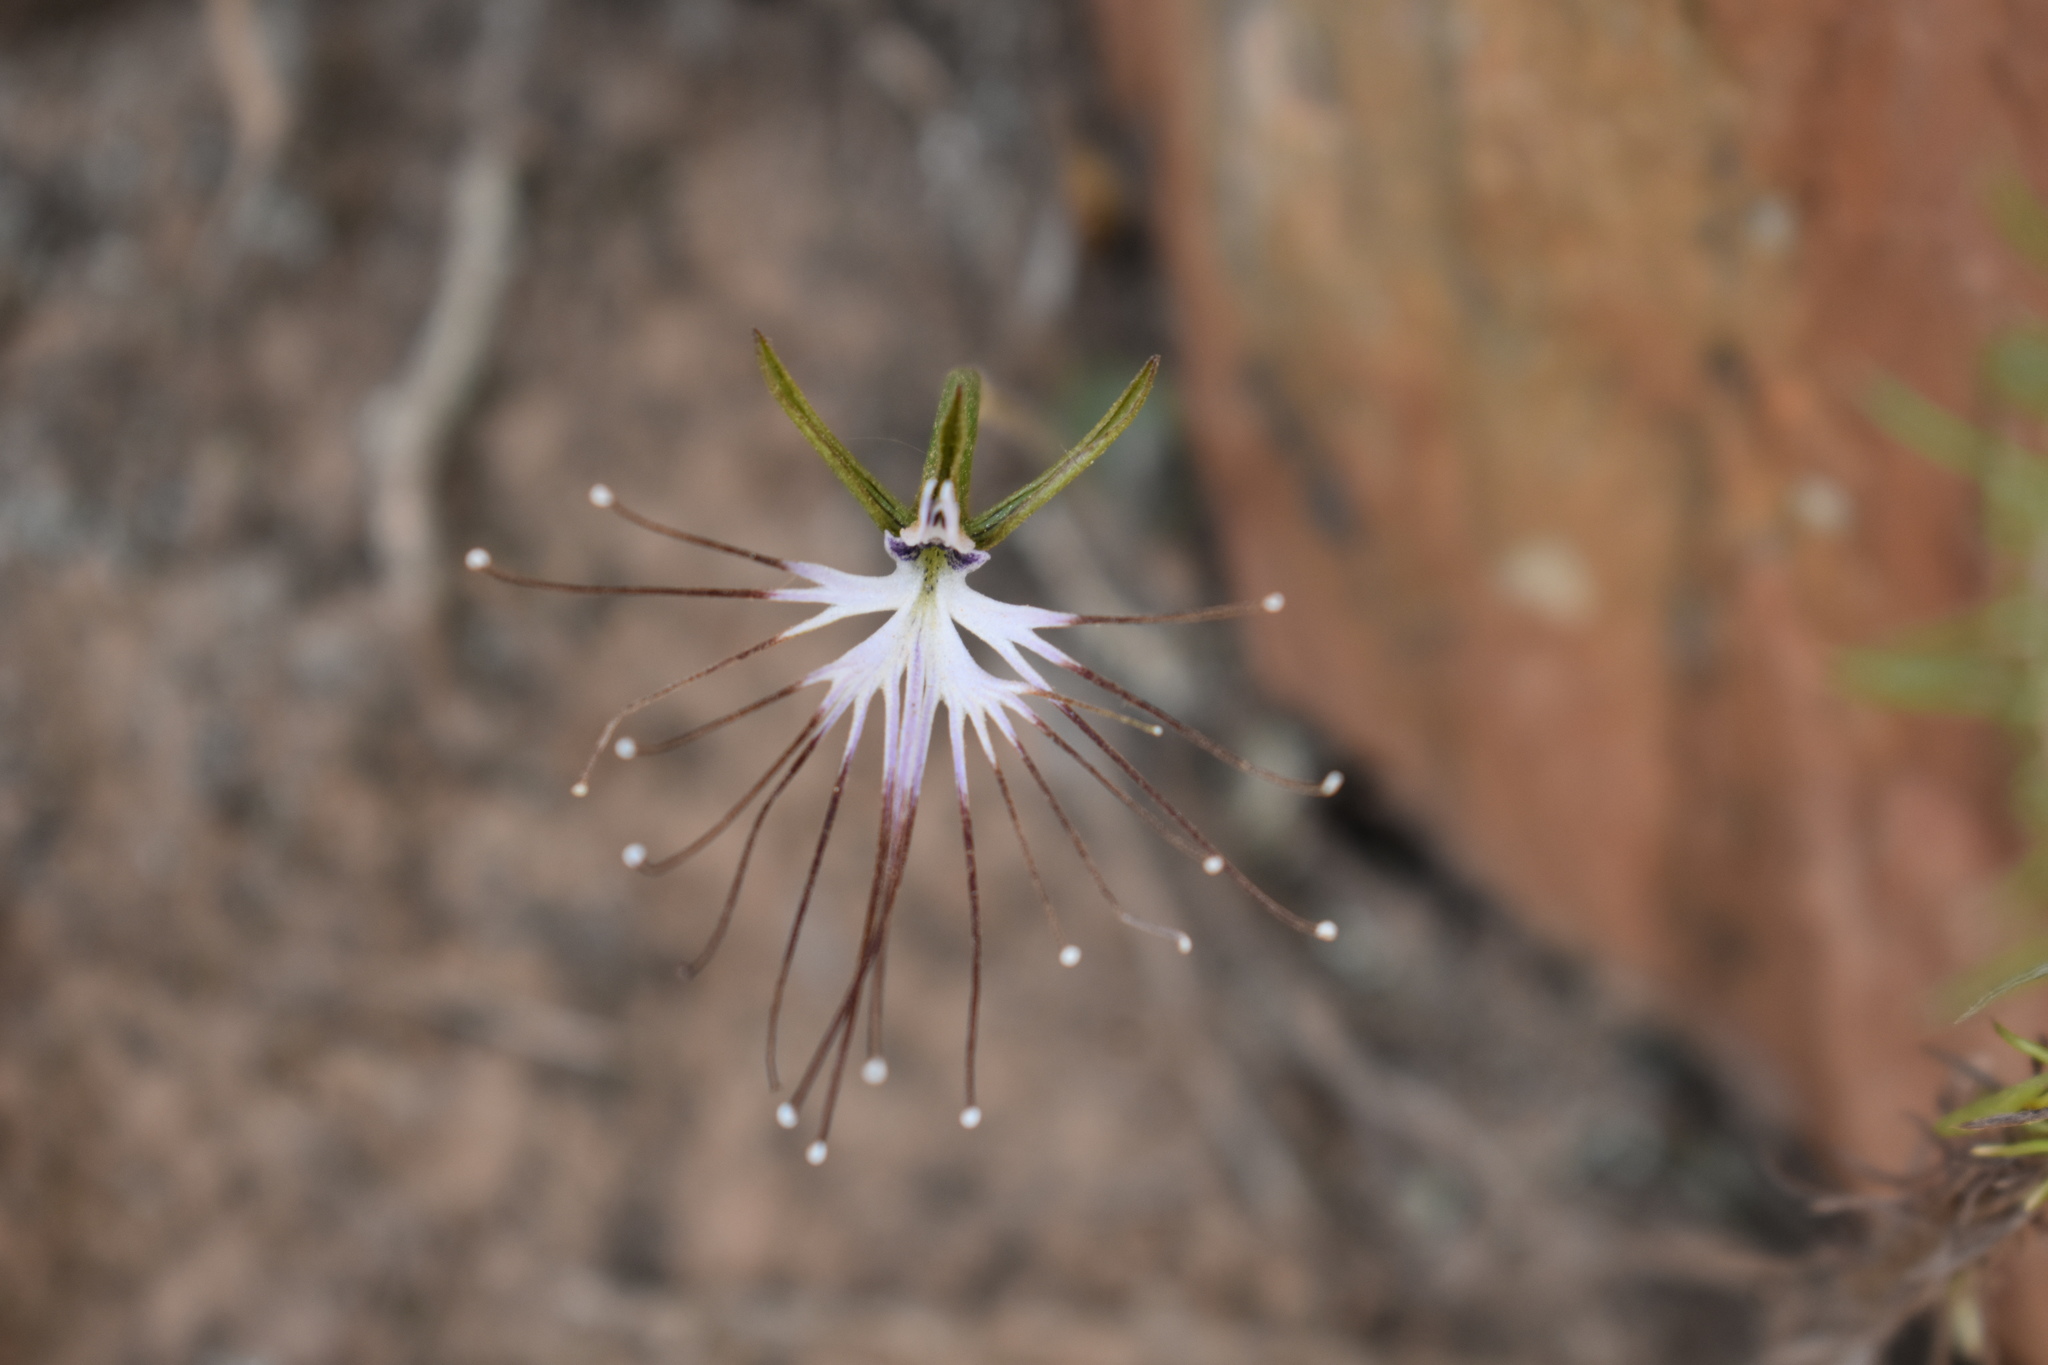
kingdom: Plantae
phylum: Tracheophyta
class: Liliopsida
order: Asparagales
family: Orchidaceae
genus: Holothrix
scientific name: Holothrix etheliae
